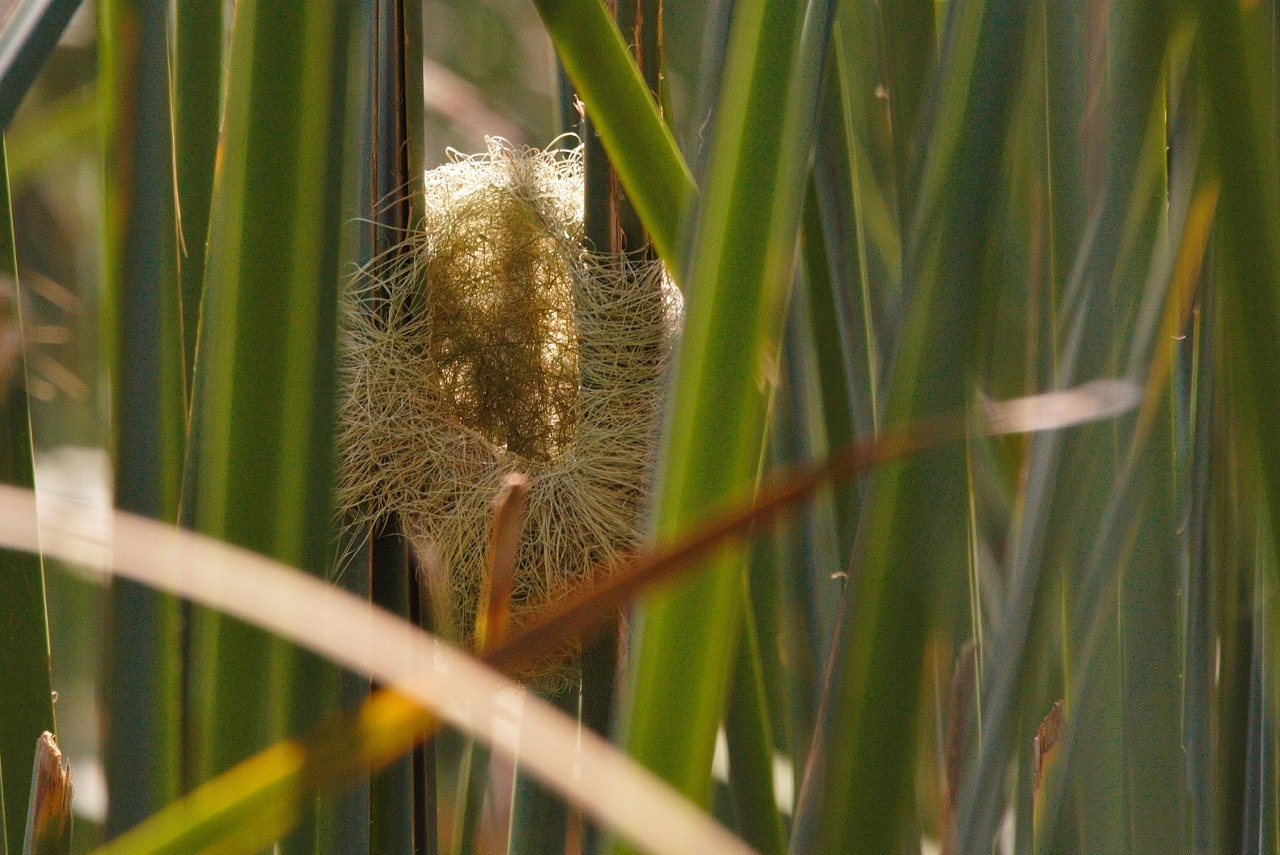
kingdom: Animalia
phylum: Chordata
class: Aves
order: Passeriformes
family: Ploceidae
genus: Amblyospiza
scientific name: Amblyospiza albifrons
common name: Thick-billed weaver
